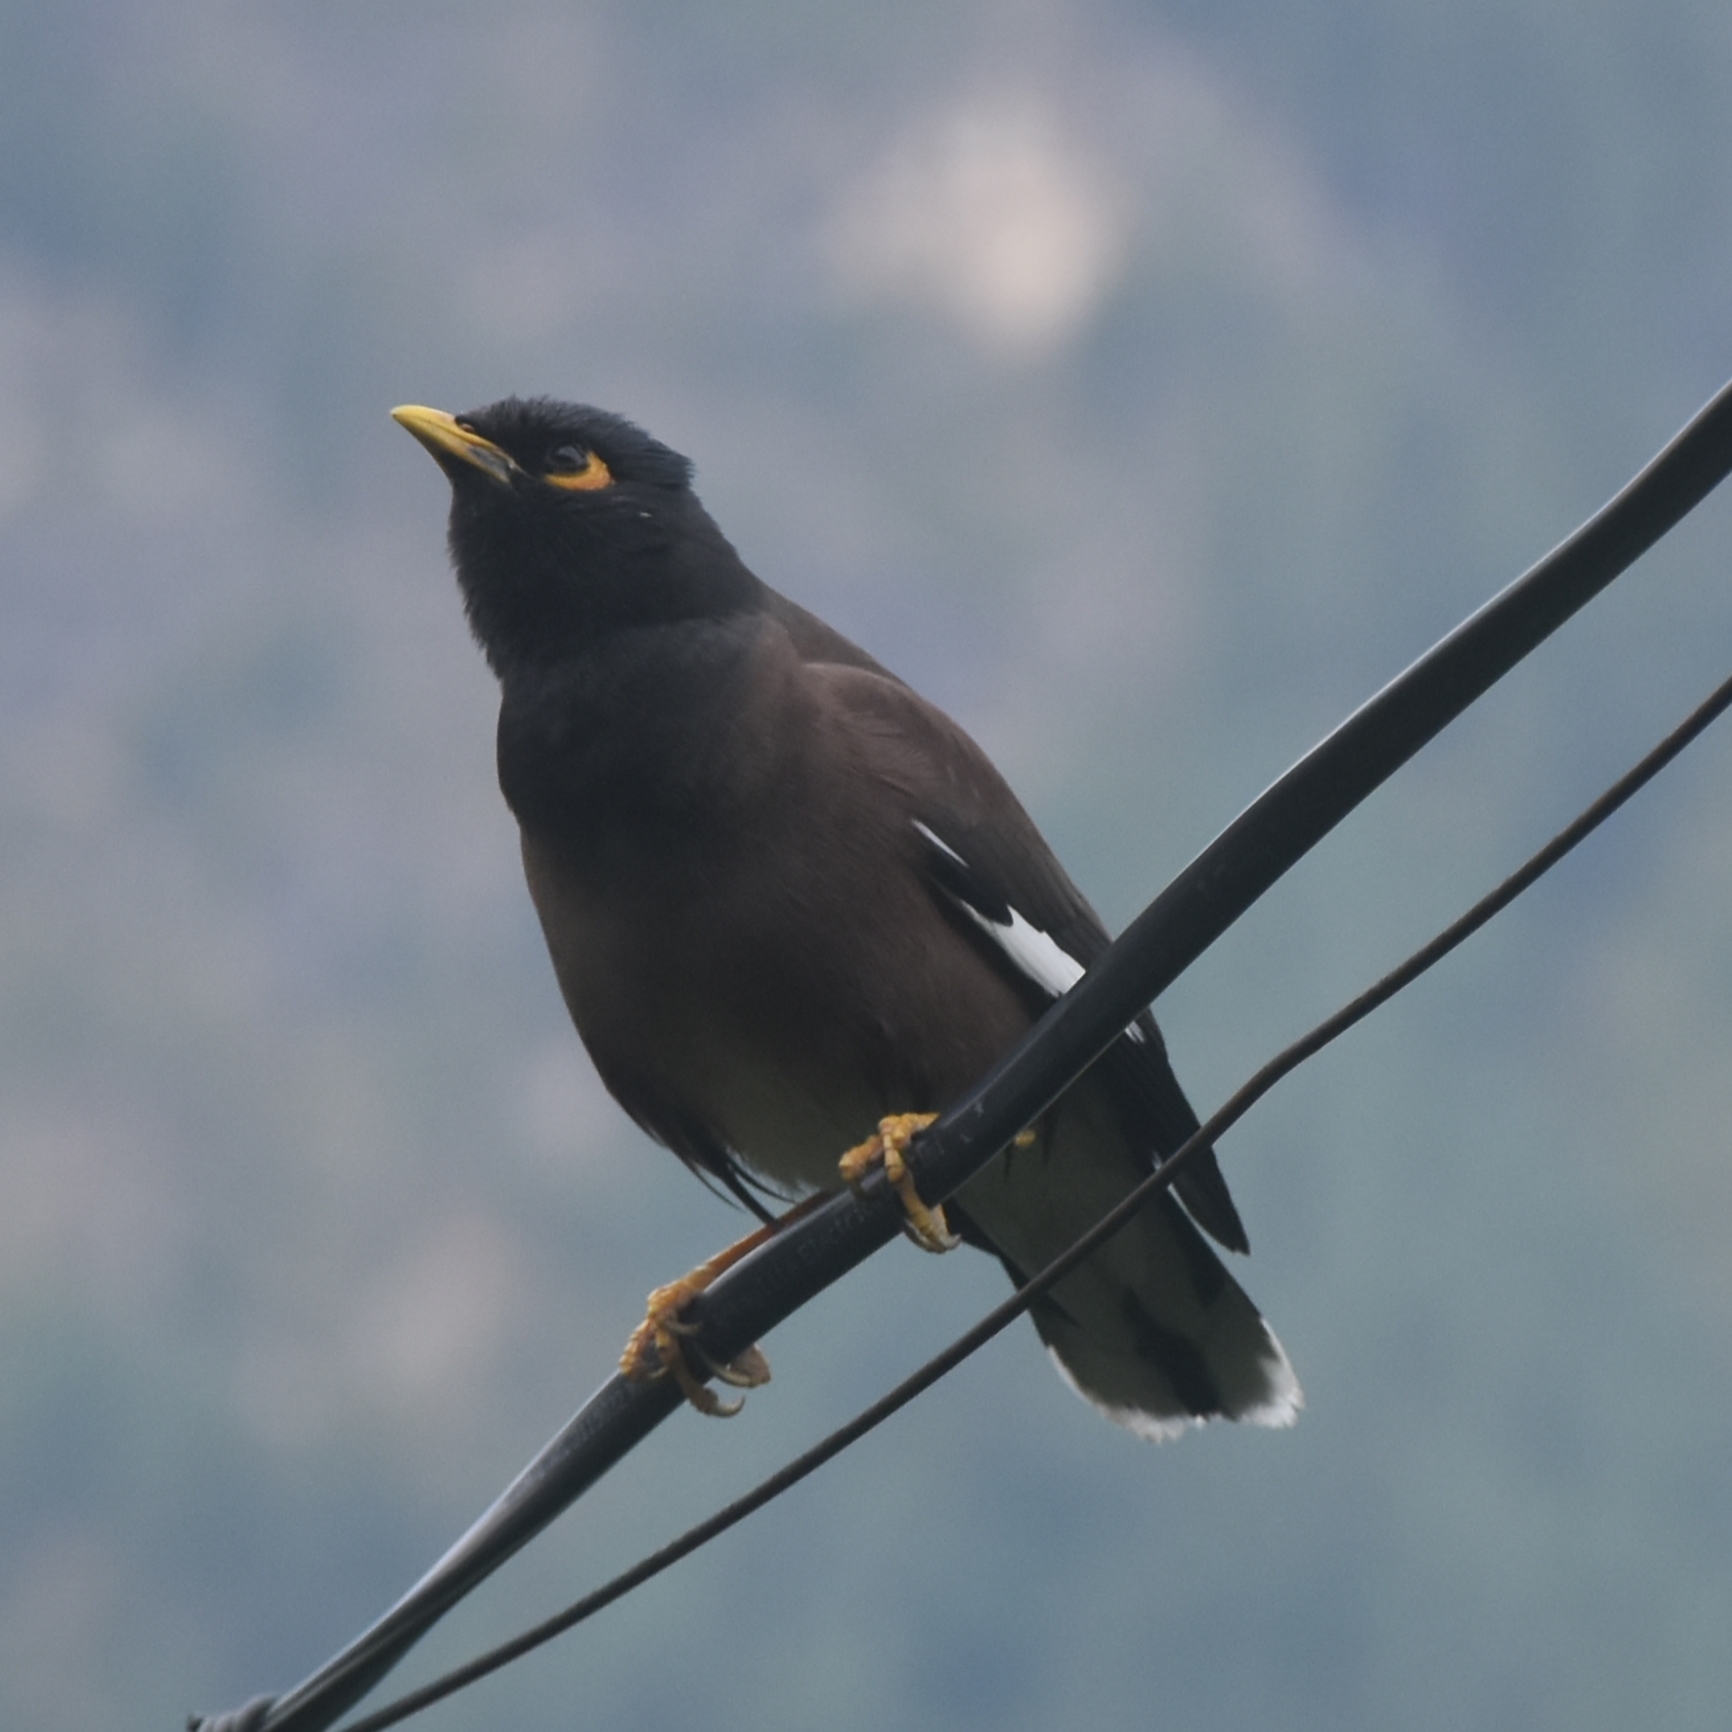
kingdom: Animalia
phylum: Chordata
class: Aves
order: Passeriformes
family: Sturnidae
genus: Acridotheres
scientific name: Acridotheres tristis
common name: Common myna
